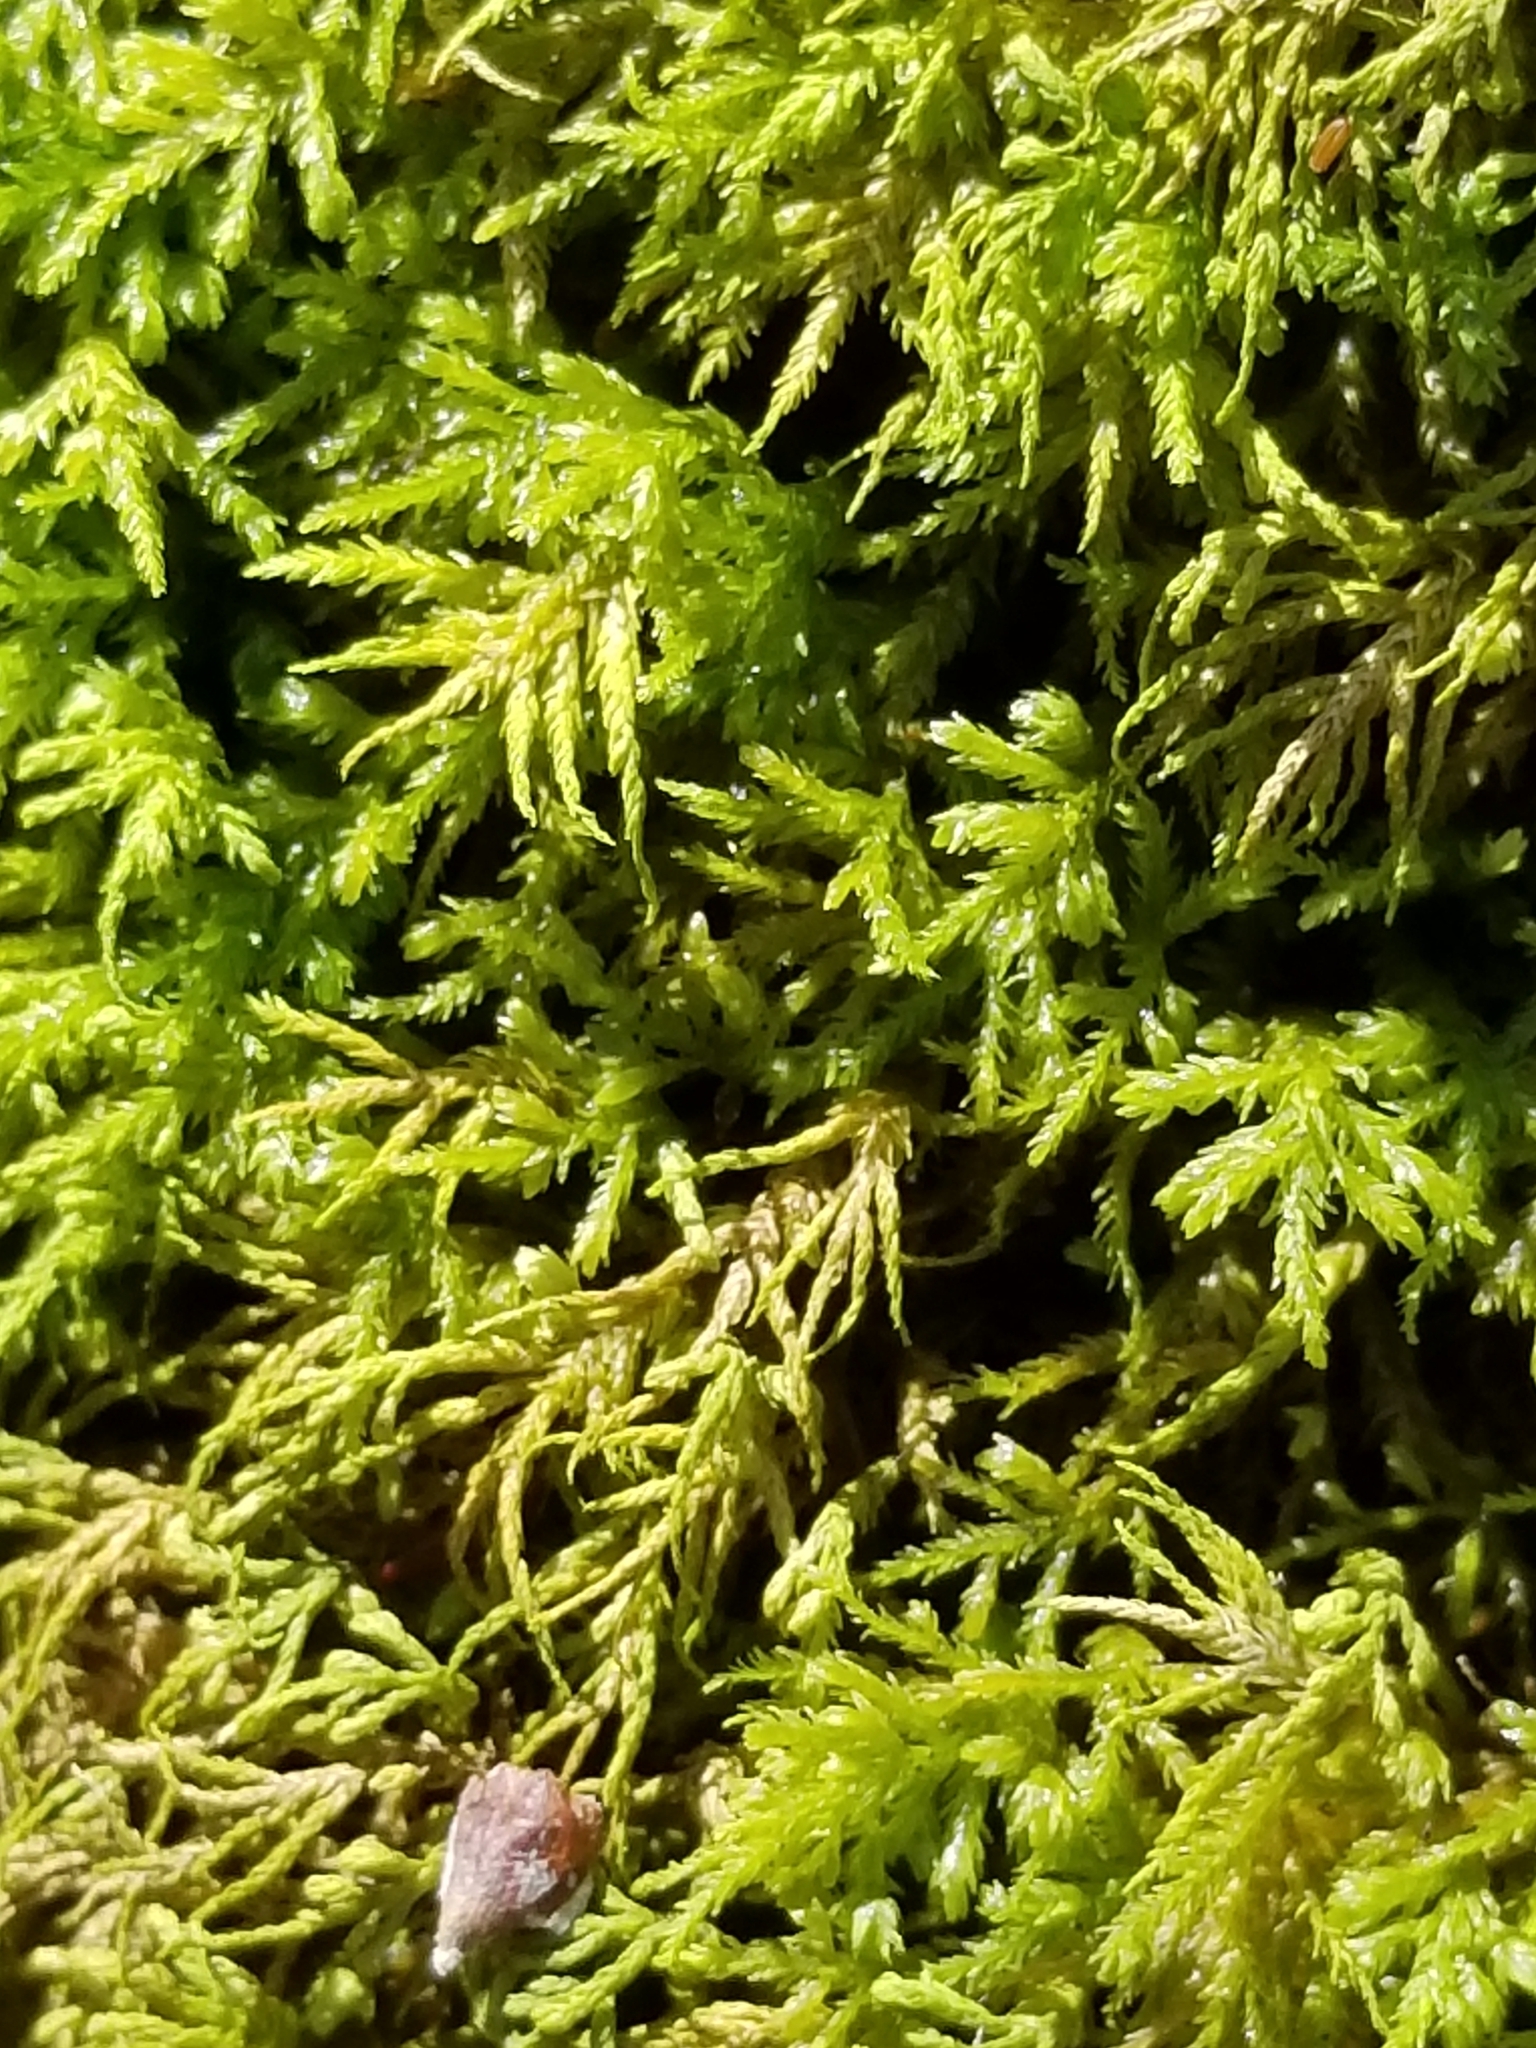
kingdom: Plantae
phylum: Bryophyta
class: Bryopsida
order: Hypnales
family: Neckeraceae
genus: Pseudanomodon
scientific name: Pseudanomodon attenuatus
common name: Tree-skirt moss
